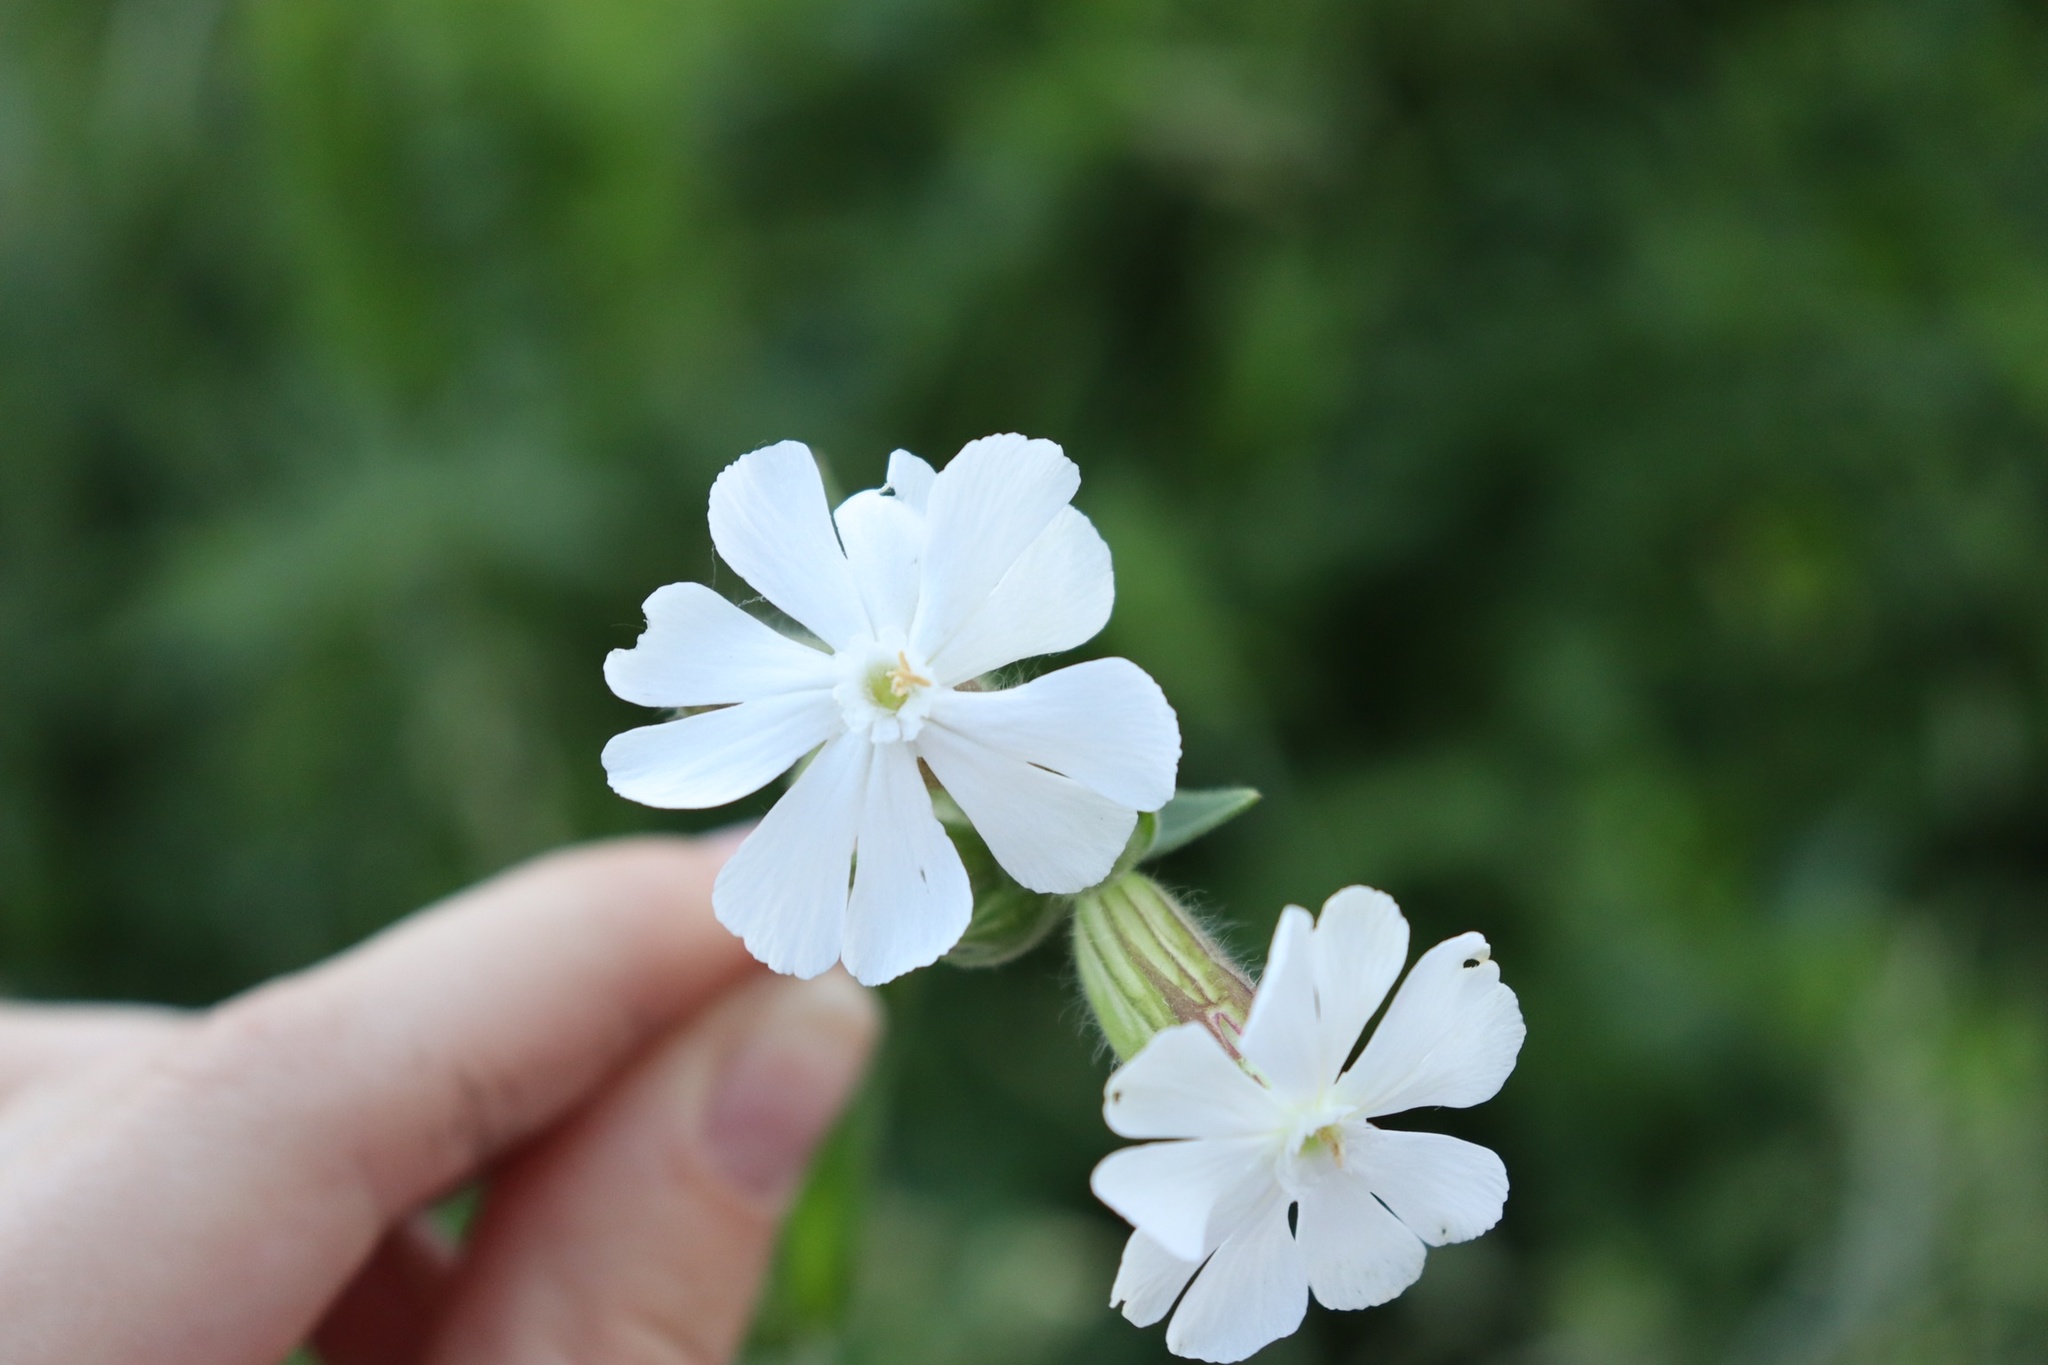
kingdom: Plantae
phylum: Tracheophyta
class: Magnoliopsida
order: Caryophyllales
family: Caryophyllaceae
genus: Silene
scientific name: Silene latifolia
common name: White campion
